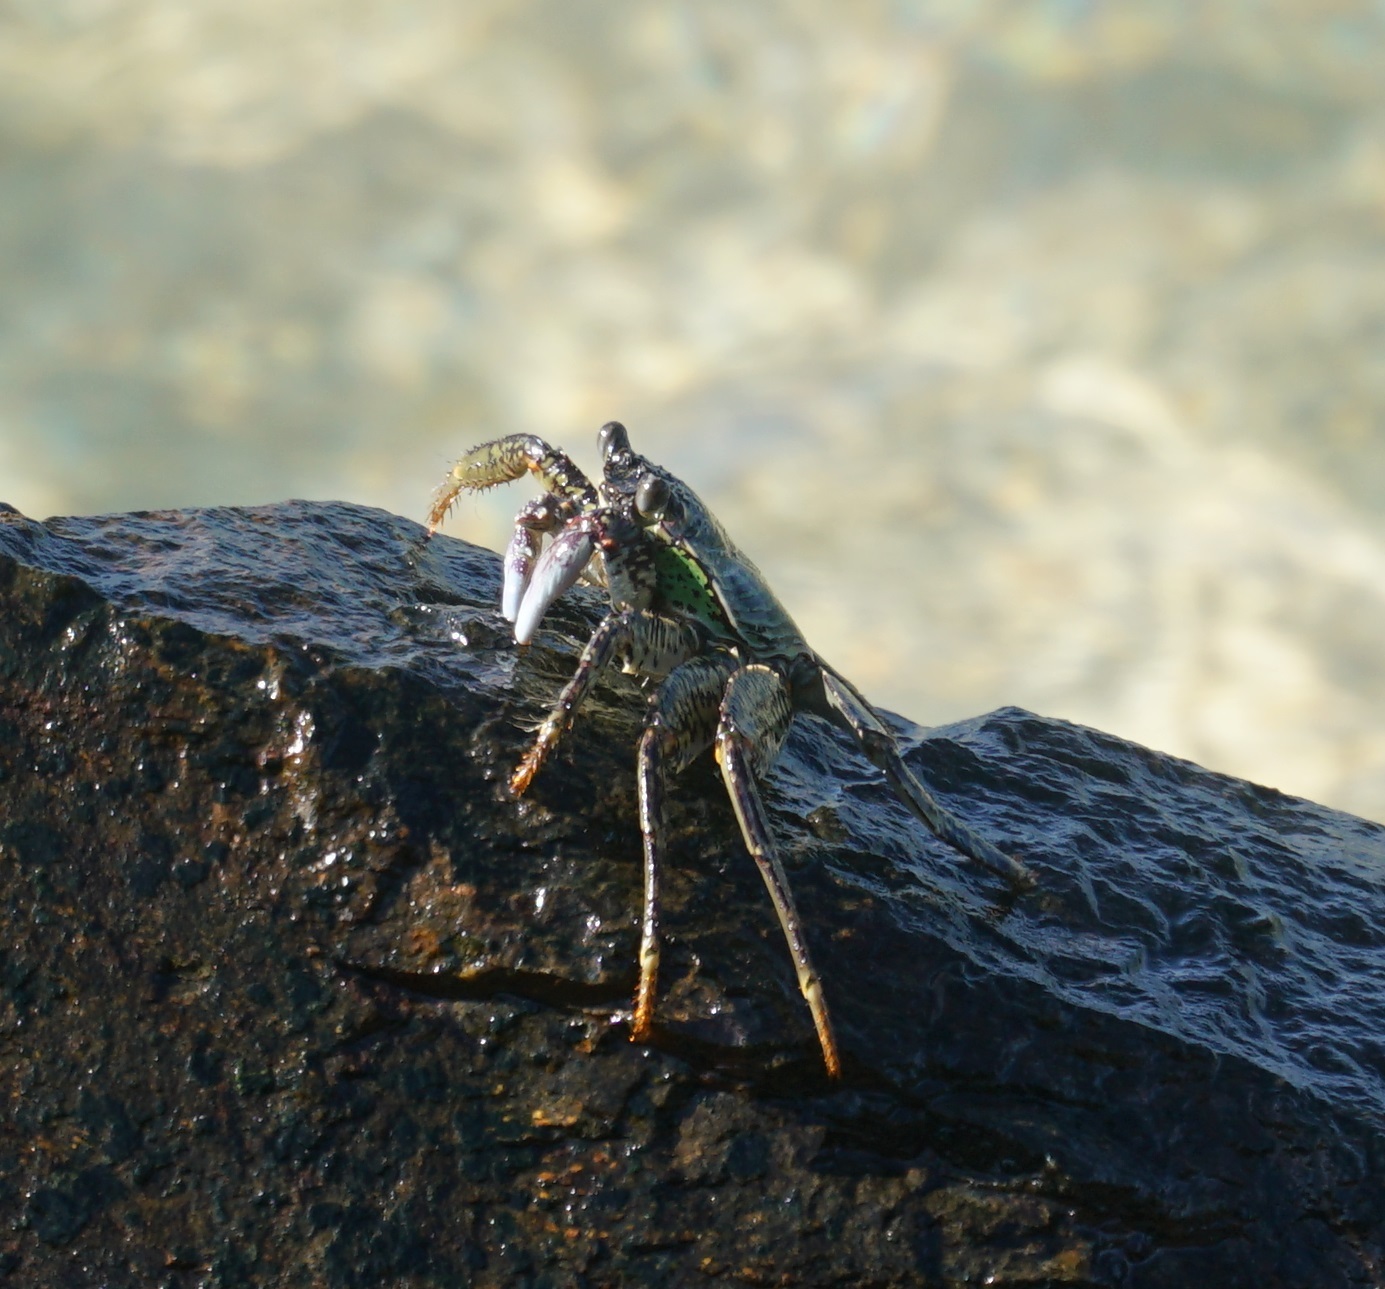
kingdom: Animalia
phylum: Arthropoda
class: Malacostraca
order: Decapoda
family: Grapsidae
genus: Grapsus
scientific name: Grapsus albolineatus
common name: Mottled lightfoot crab
